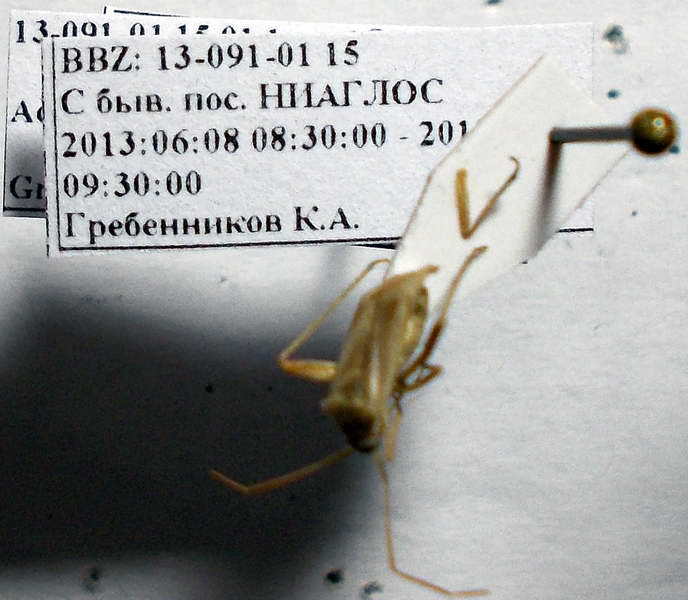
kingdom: Animalia
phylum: Arthropoda
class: Insecta
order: Hemiptera
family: Miridae
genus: Adelphocoris
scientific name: Adelphocoris lineolatus
